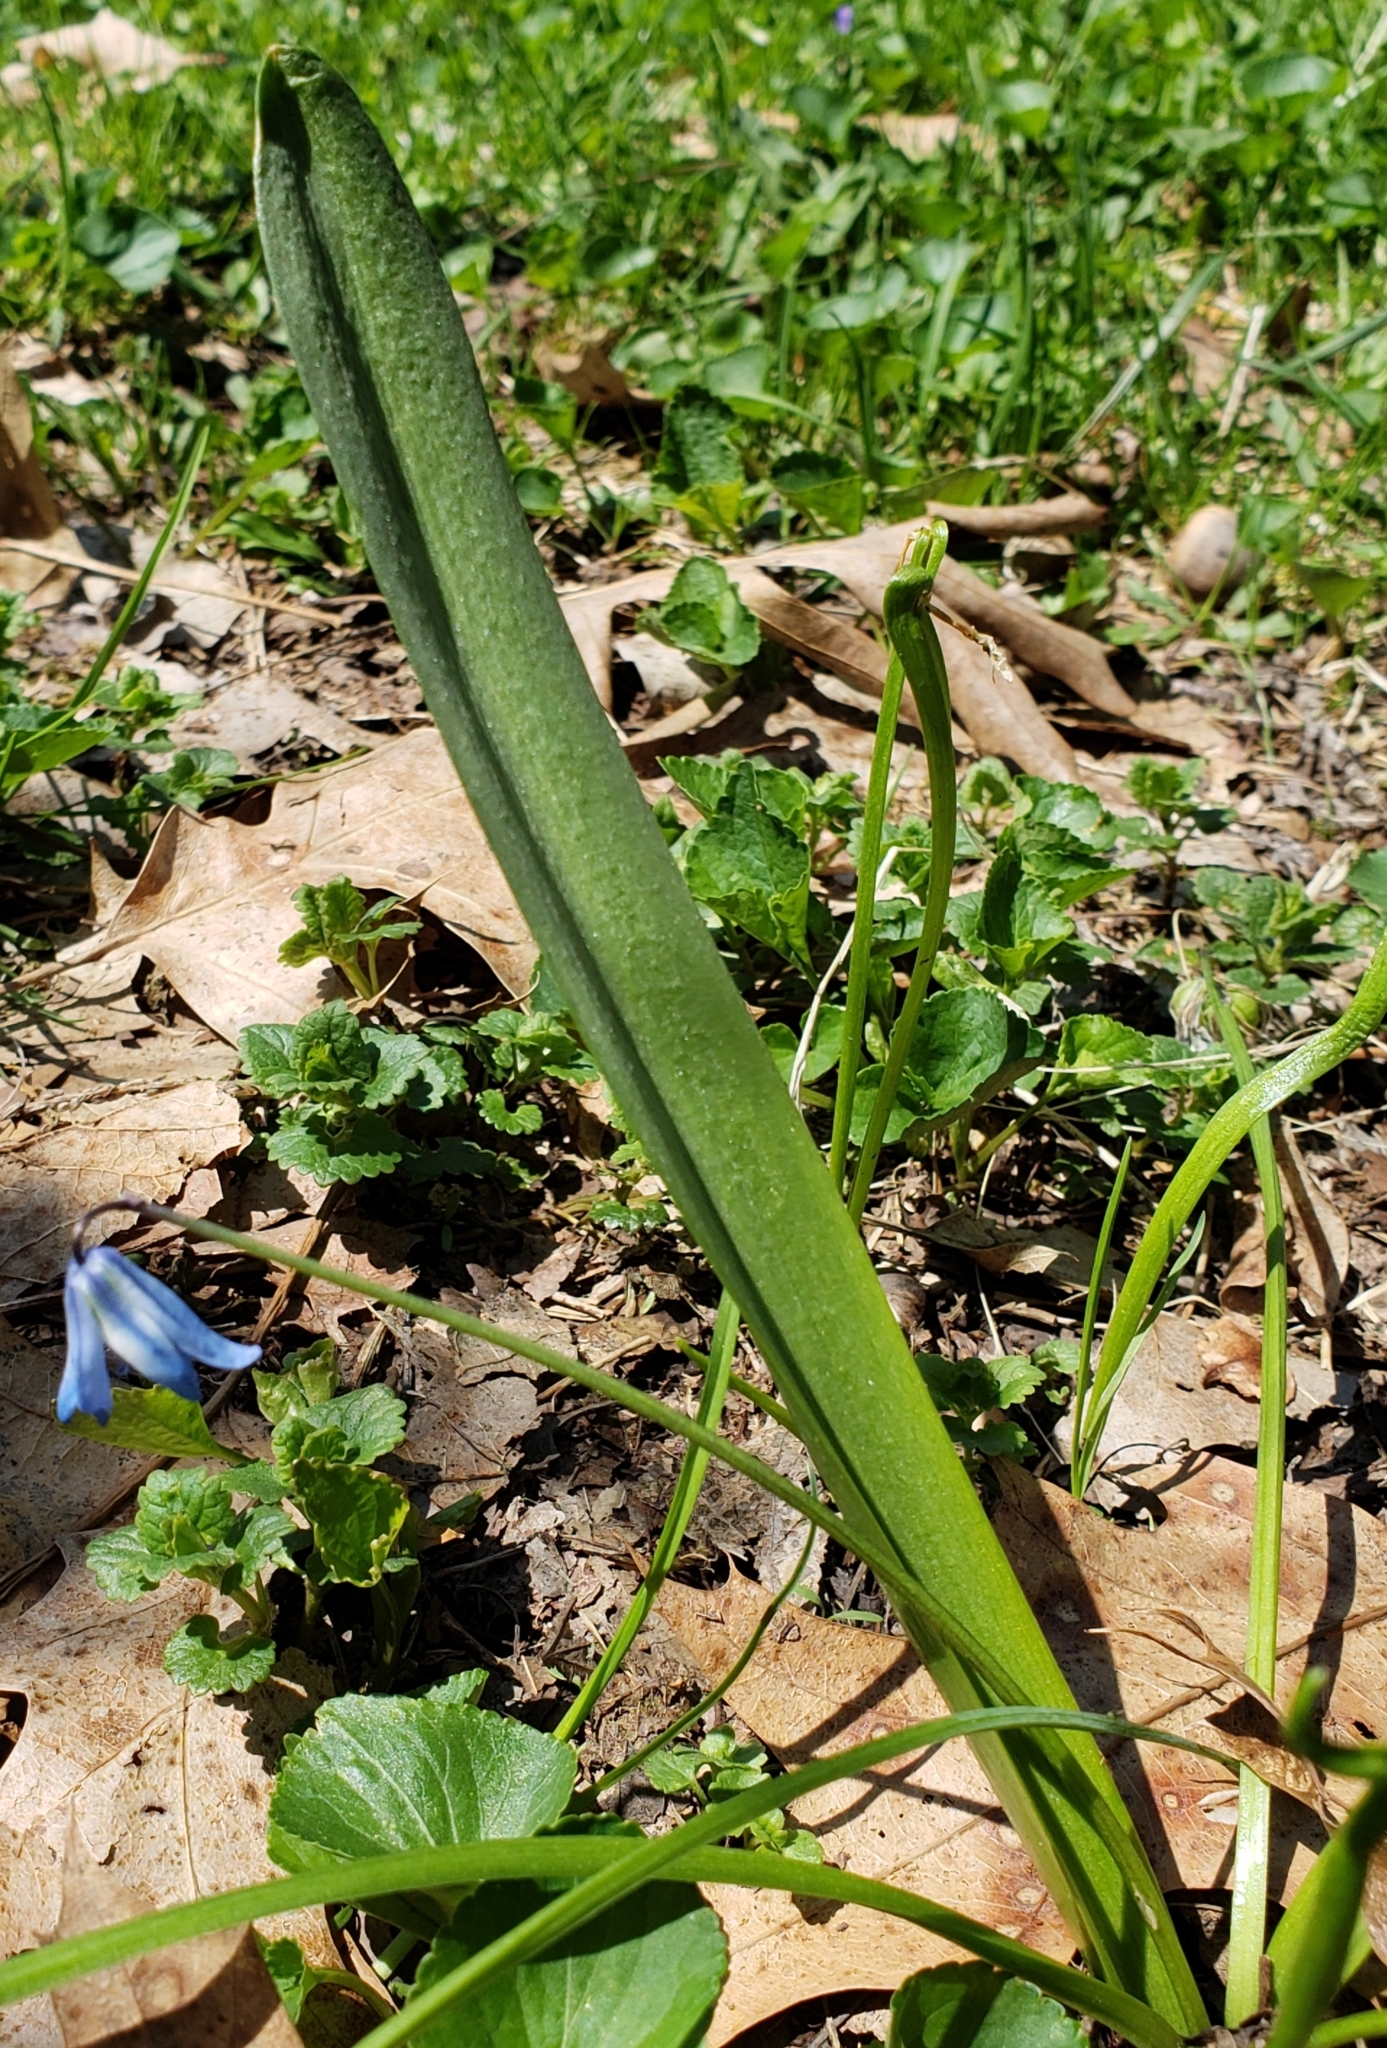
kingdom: Plantae
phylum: Tracheophyta
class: Liliopsida
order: Asparagales
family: Asparagaceae
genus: Scilla
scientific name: Scilla siberica
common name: Siberian squill
